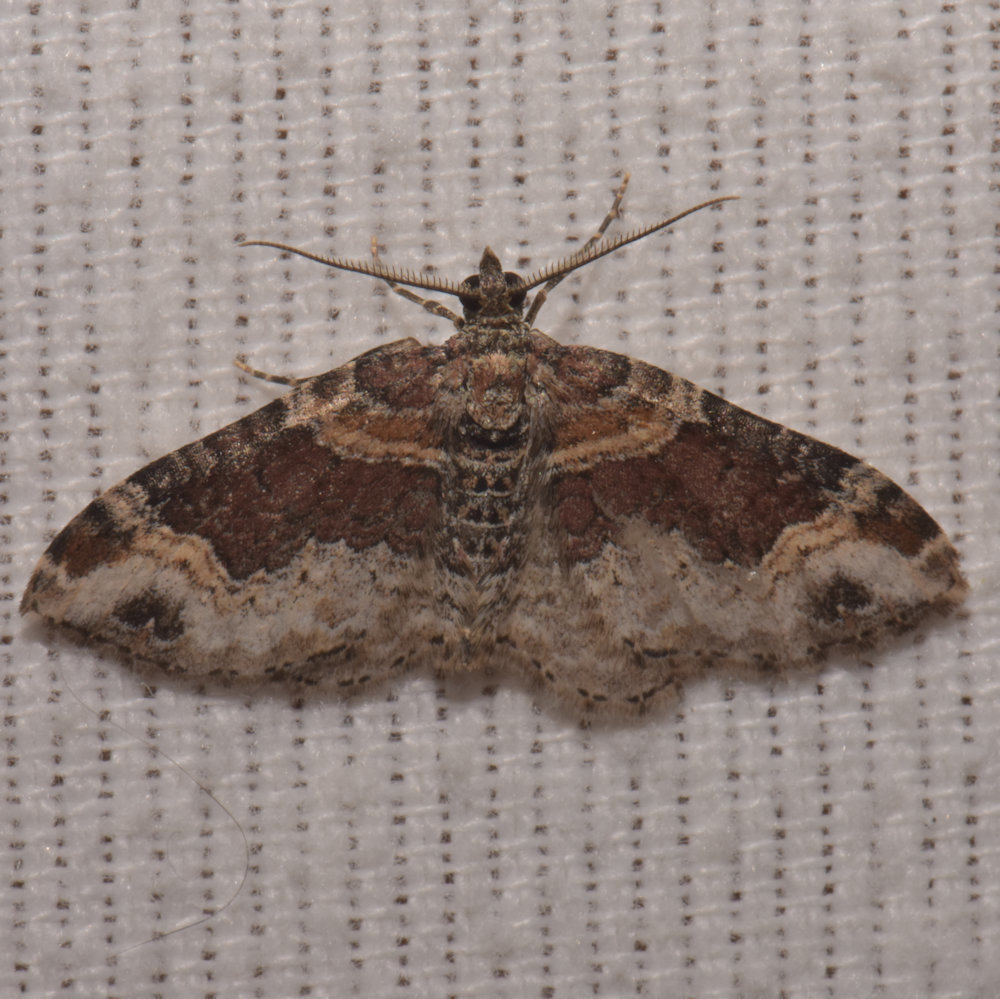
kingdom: Animalia
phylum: Arthropoda
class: Insecta
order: Lepidoptera
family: Geometridae
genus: Xanthorhoe
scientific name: Xanthorhoe ferrugata
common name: Dark-barred twin-spot carpet
